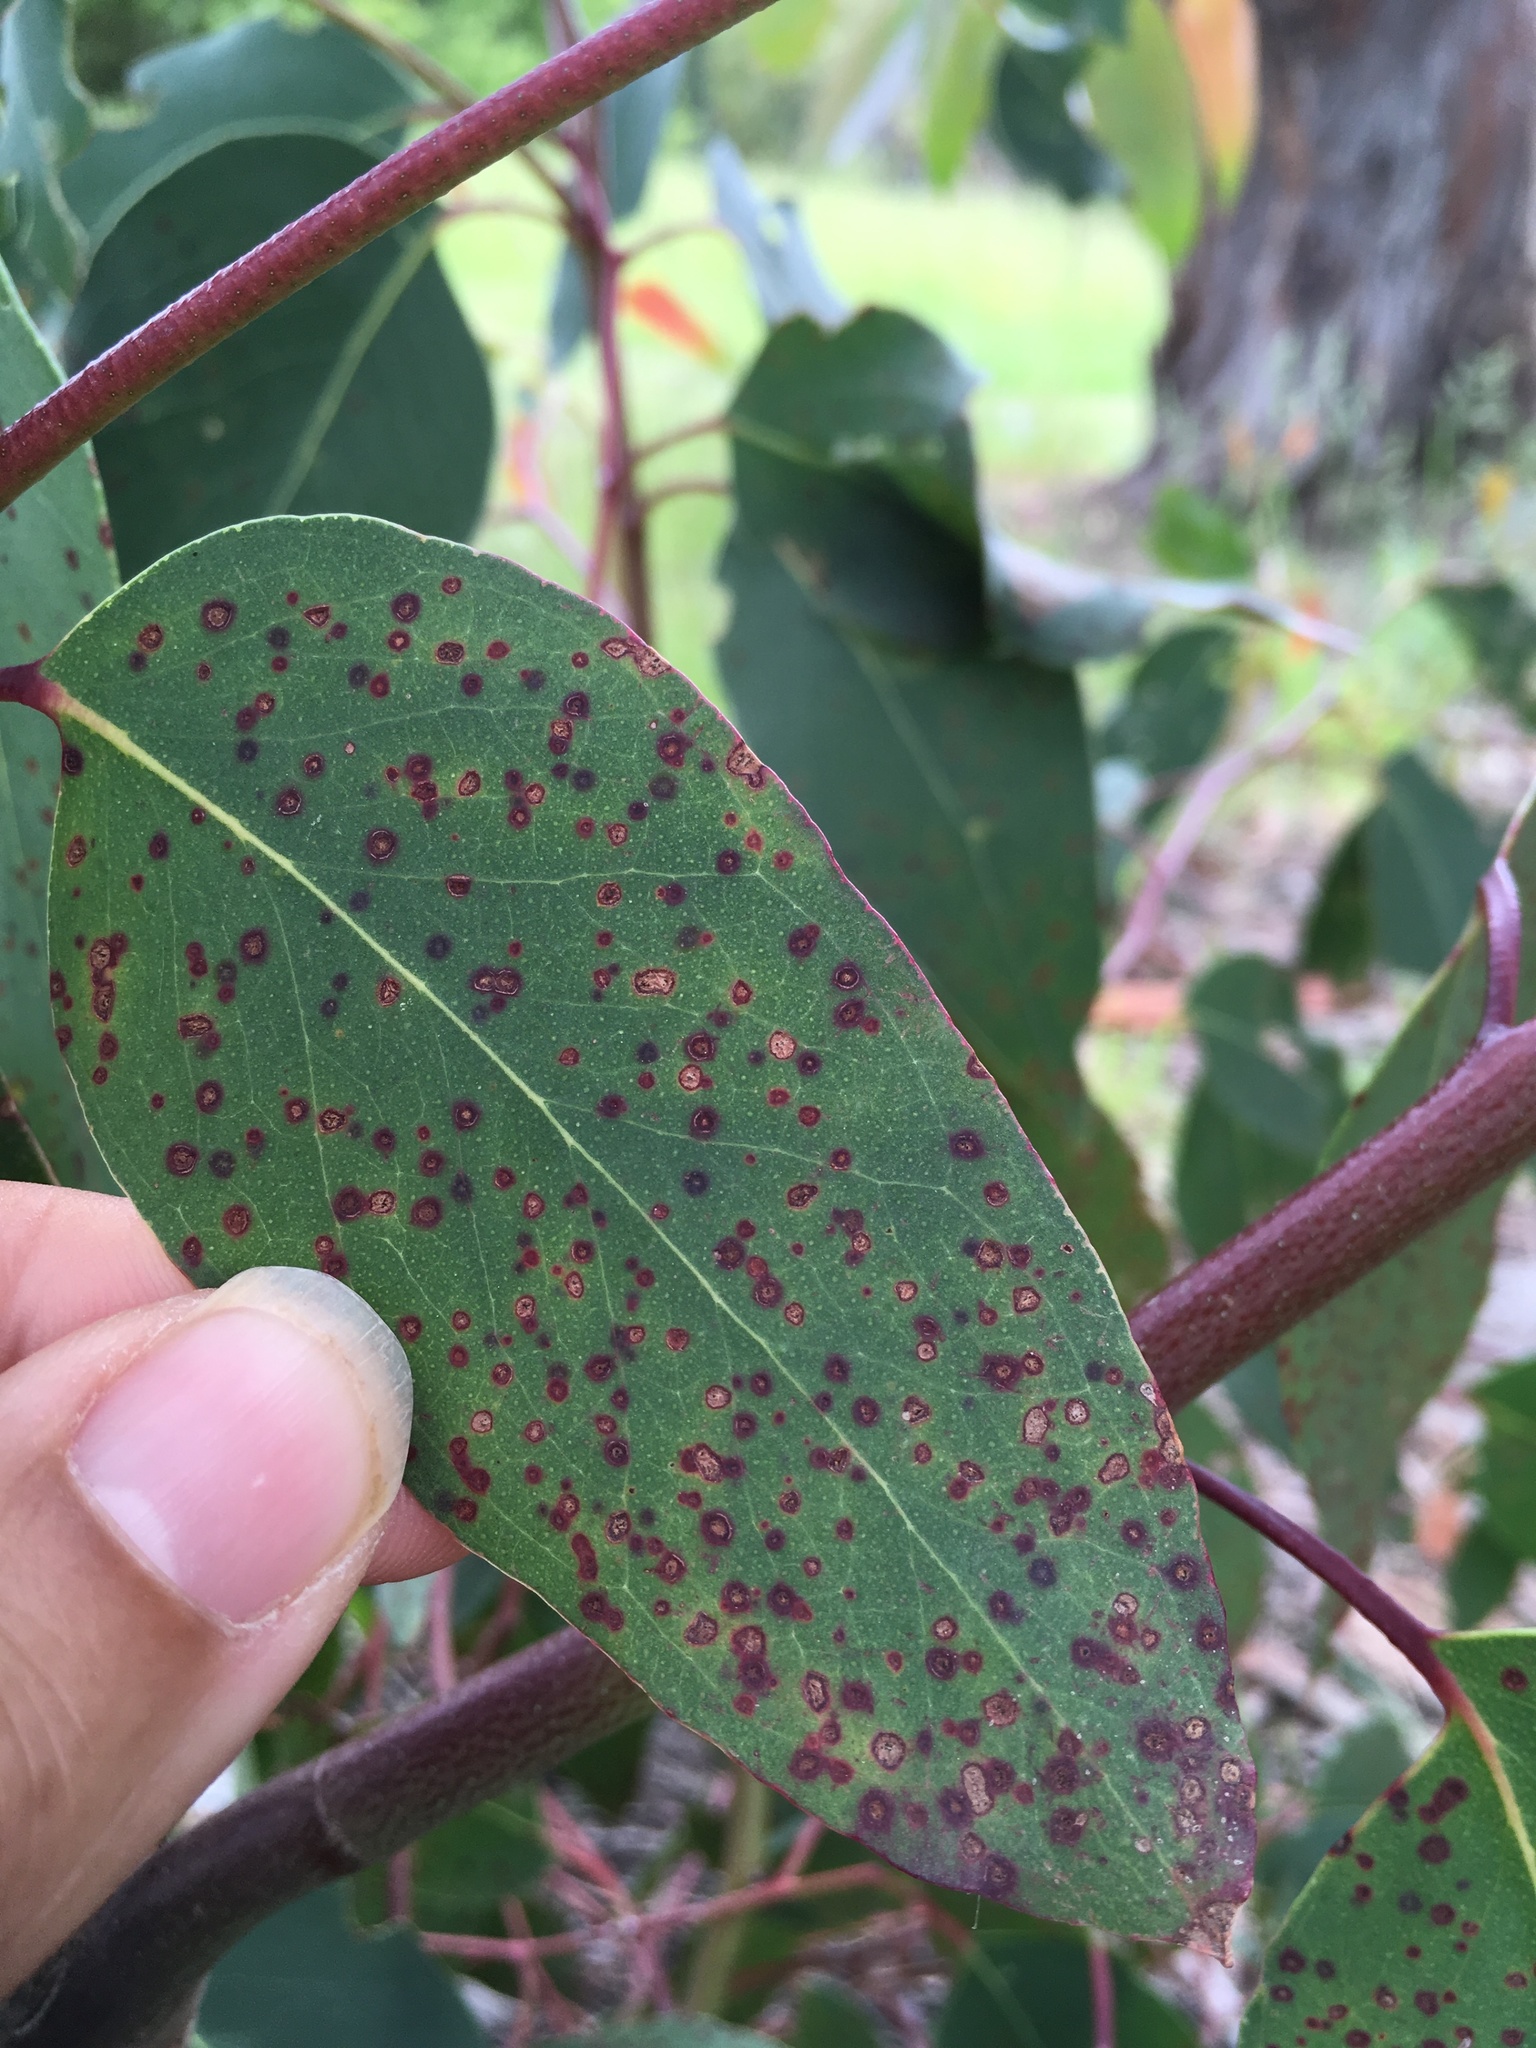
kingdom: Fungi
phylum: Ascomycota
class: Dothideomycetes
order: Mycosphaerellales
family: Teratosphaeriaceae
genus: Teratosphaeria
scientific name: Teratosphaeria considenianae
